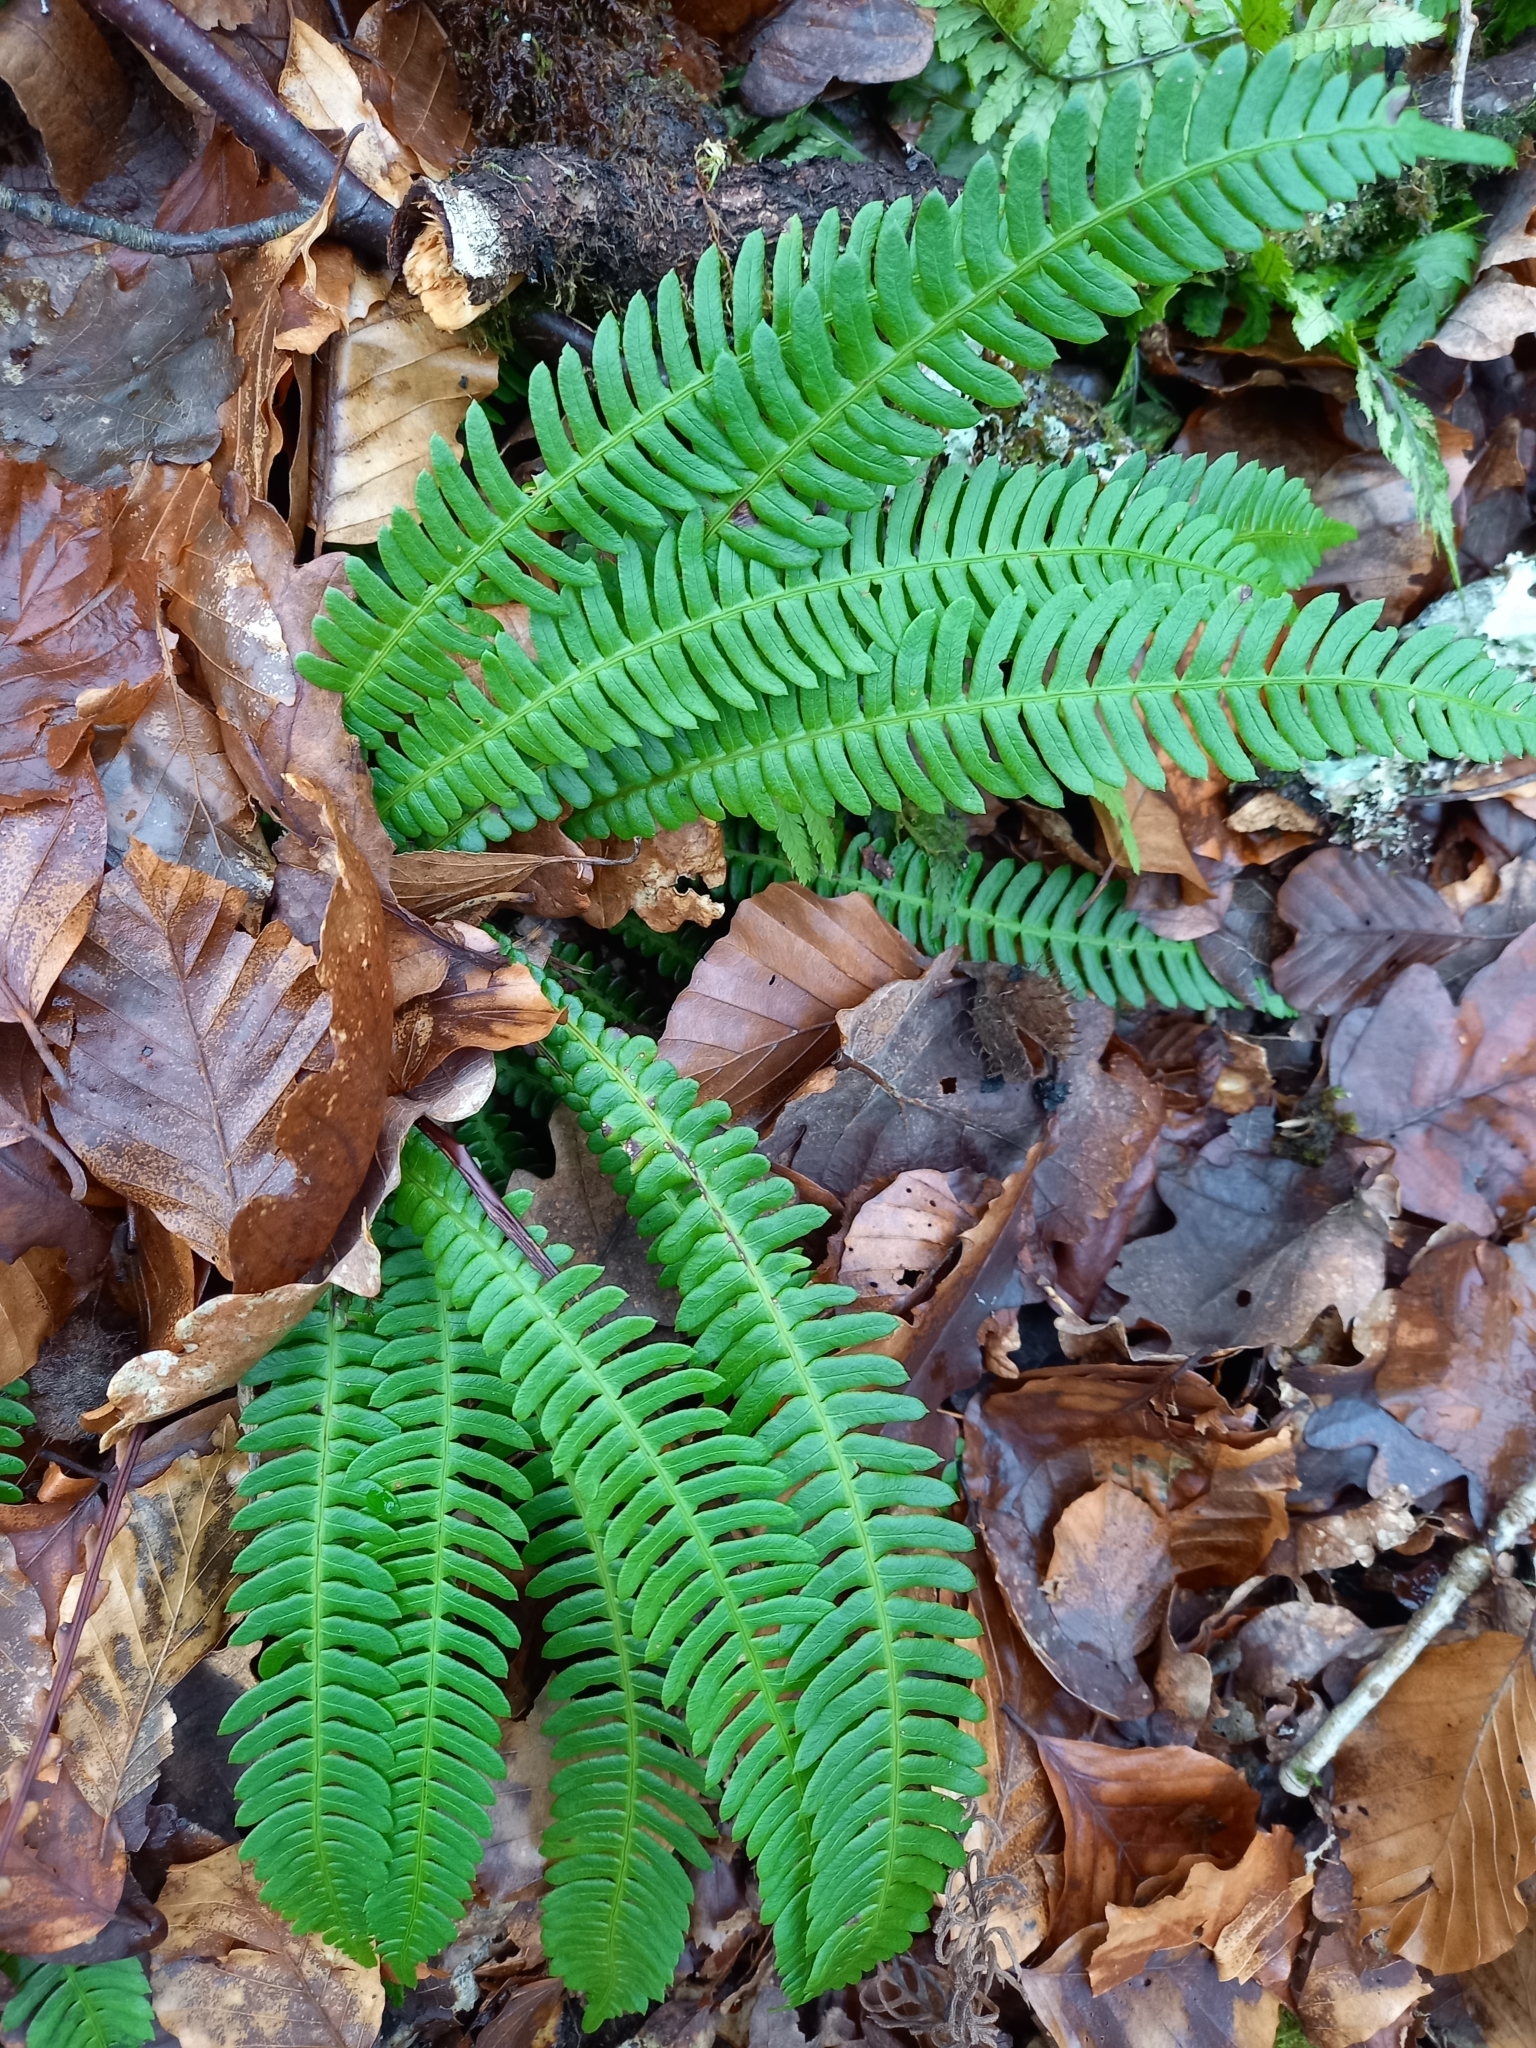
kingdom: Plantae
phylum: Tracheophyta
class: Polypodiopsida
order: Polypodiales
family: Blechnaceae
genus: Struthiopteris
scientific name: Struthiopteris spicant
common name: Deer fern
